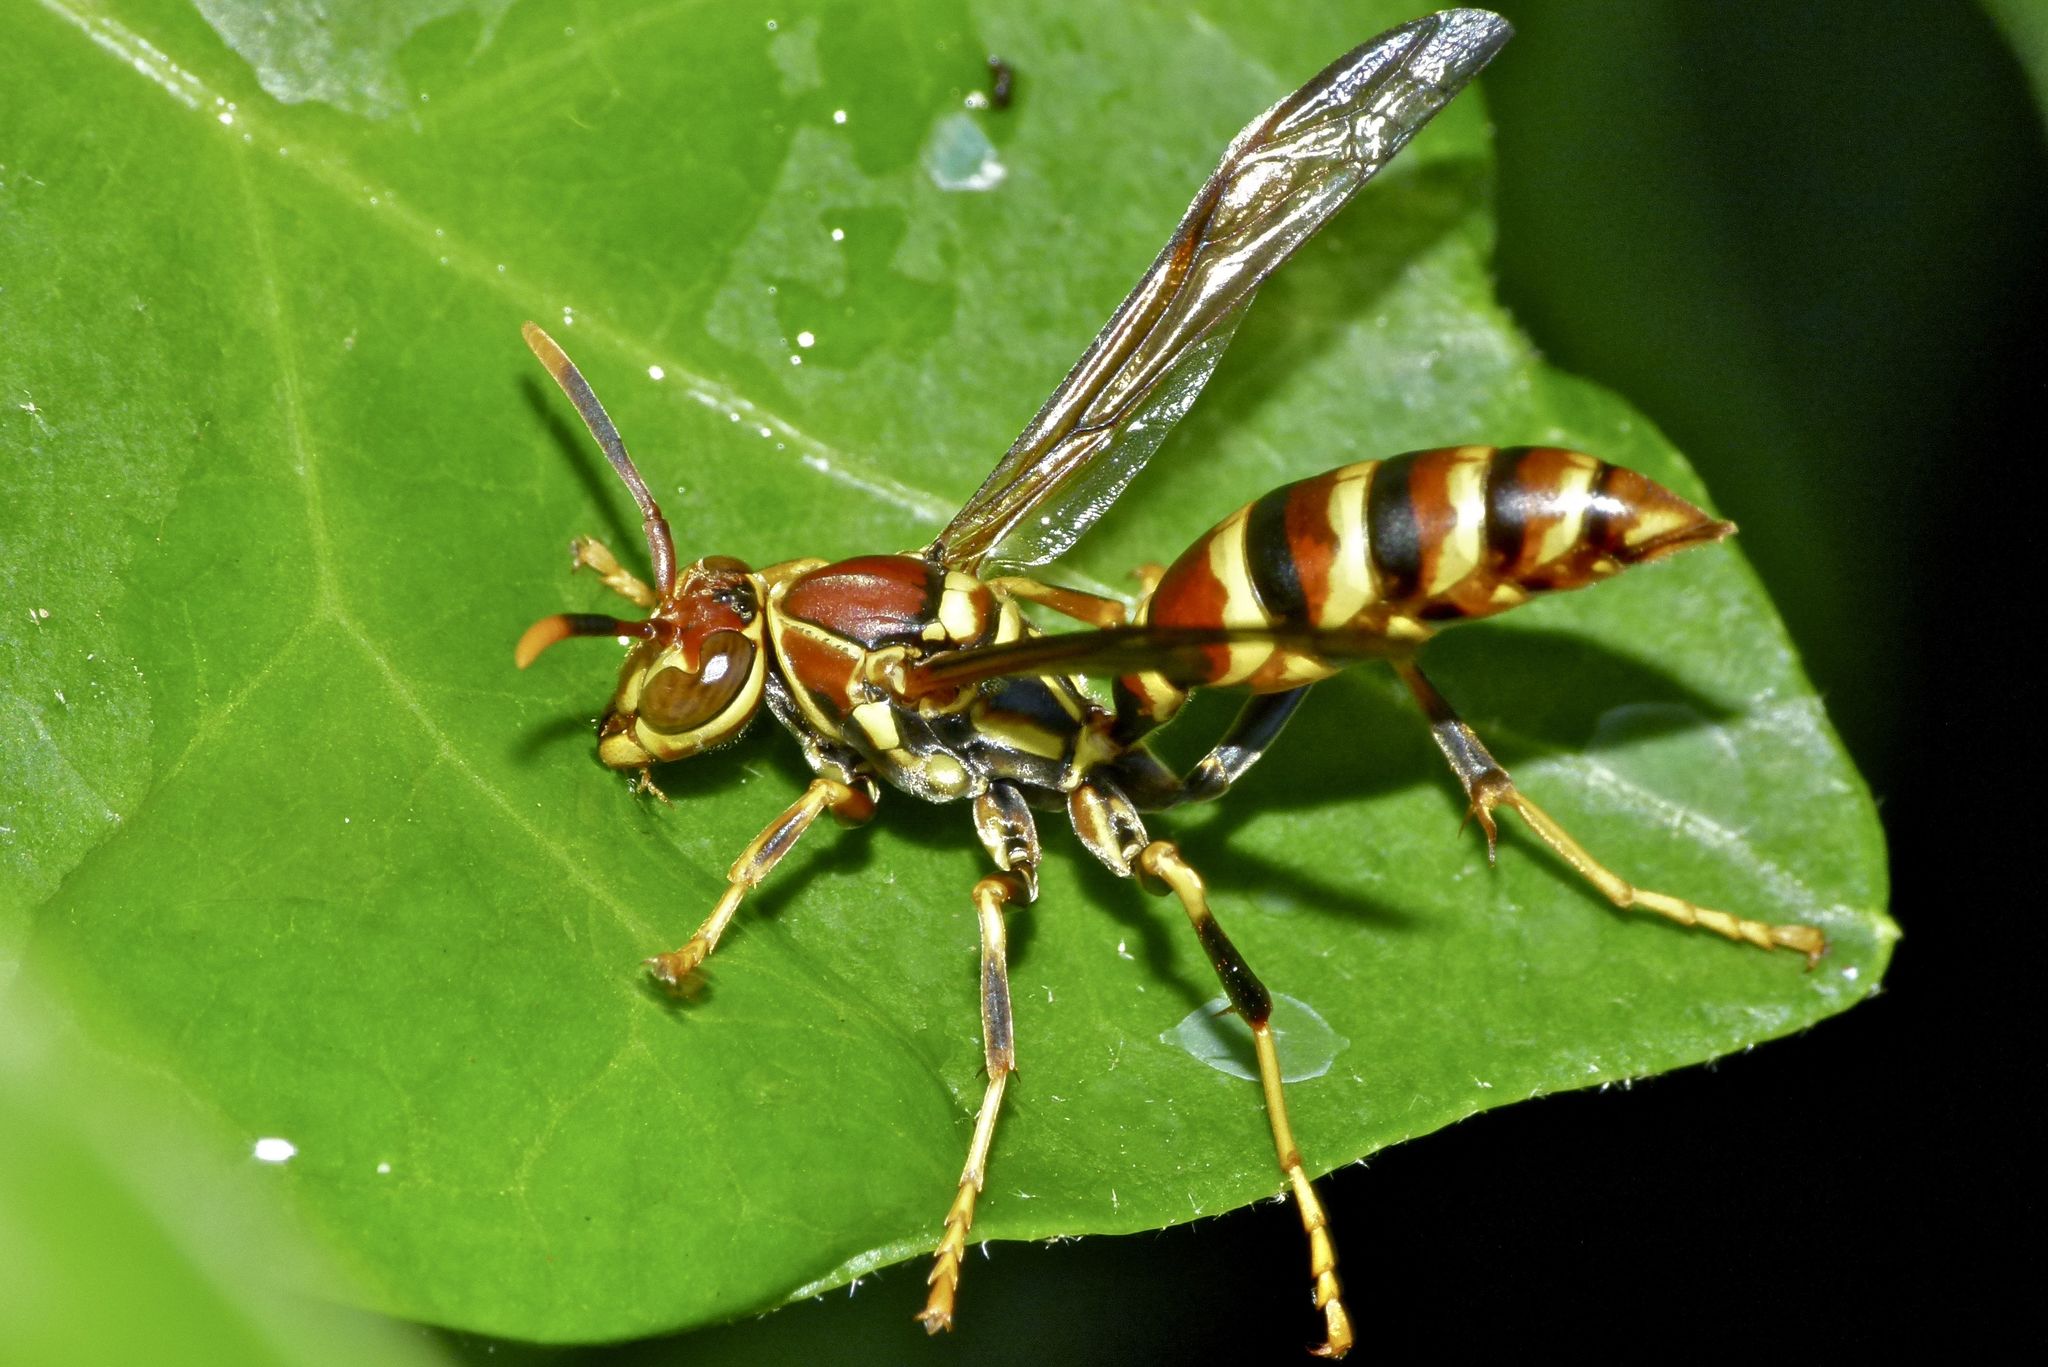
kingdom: Animalia
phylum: Arthropoda
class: Insecta
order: Hymenoptera
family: Eumenidae
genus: Polistes
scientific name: Polistes exclamans
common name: Paper wasp
